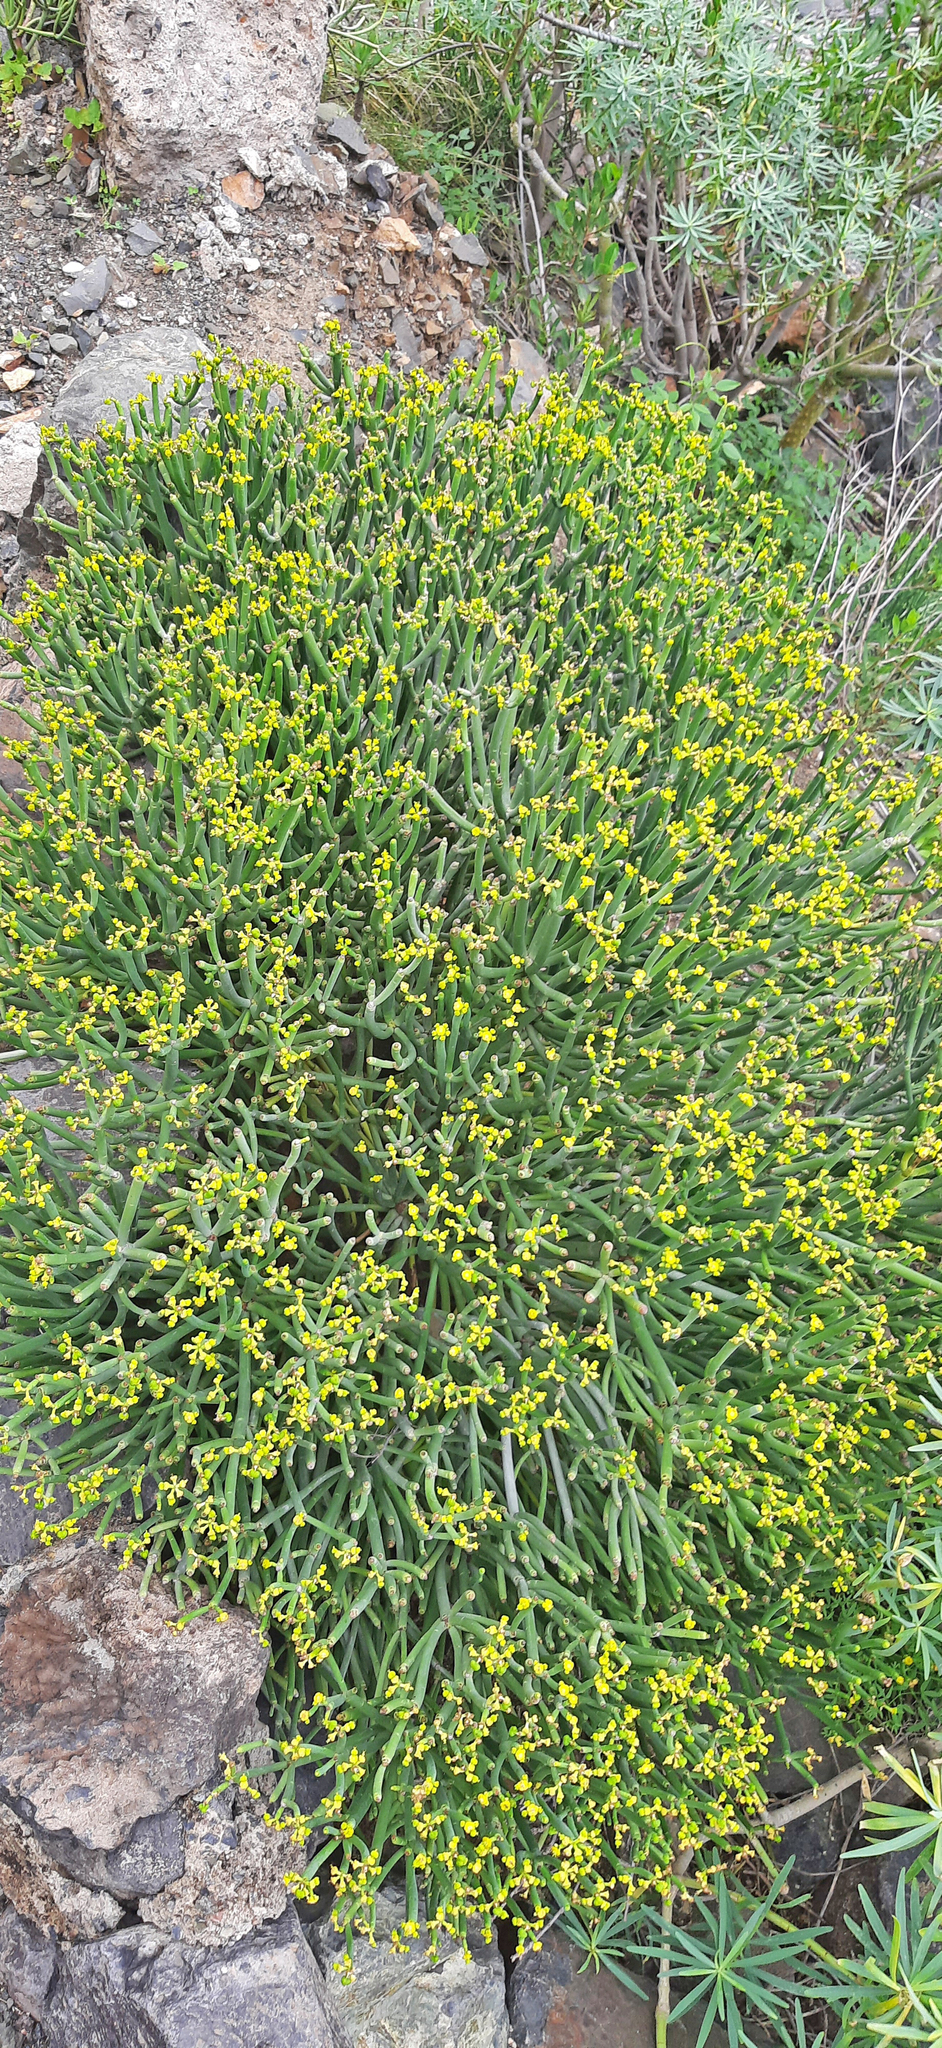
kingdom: Plantae
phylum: Tracheophyta
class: Magnoliopsida
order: Malpighiales
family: Euphorbiaceae
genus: Euphorbia
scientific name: Euphorbia aphylla
